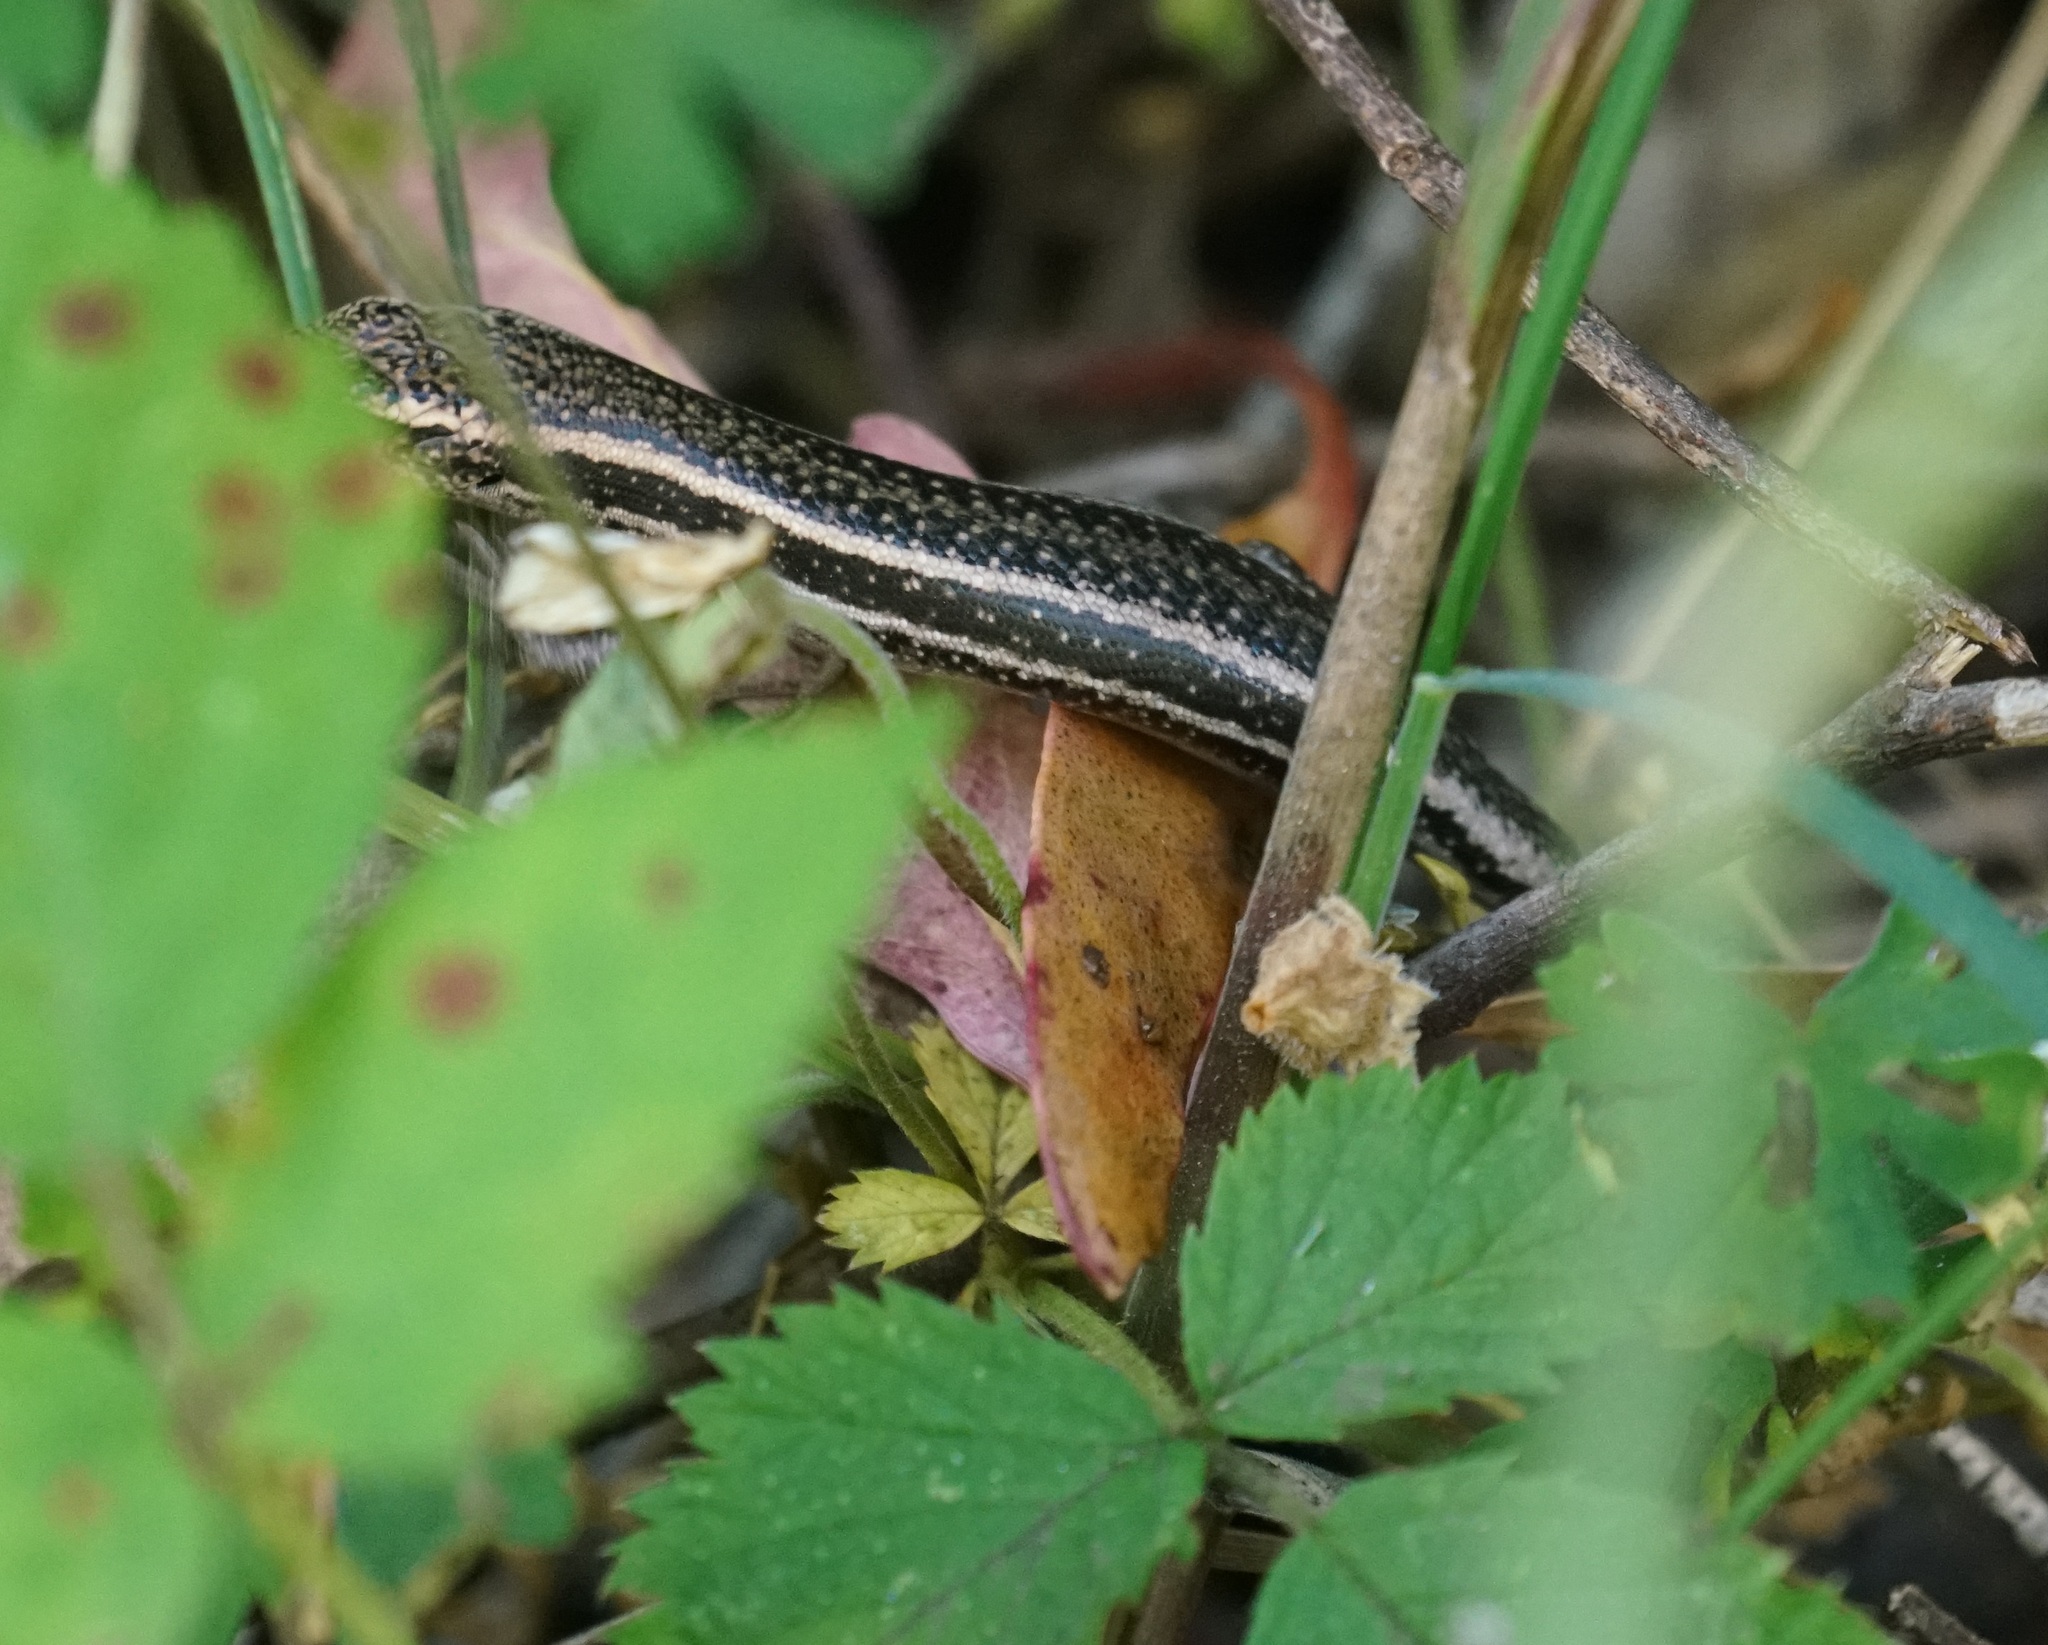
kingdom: Animalia
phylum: Chordata
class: Squamata
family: Scincidae
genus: Pseudemoia
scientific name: Pseudemoia spenceri
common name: Trunk-climbing cool-skink
